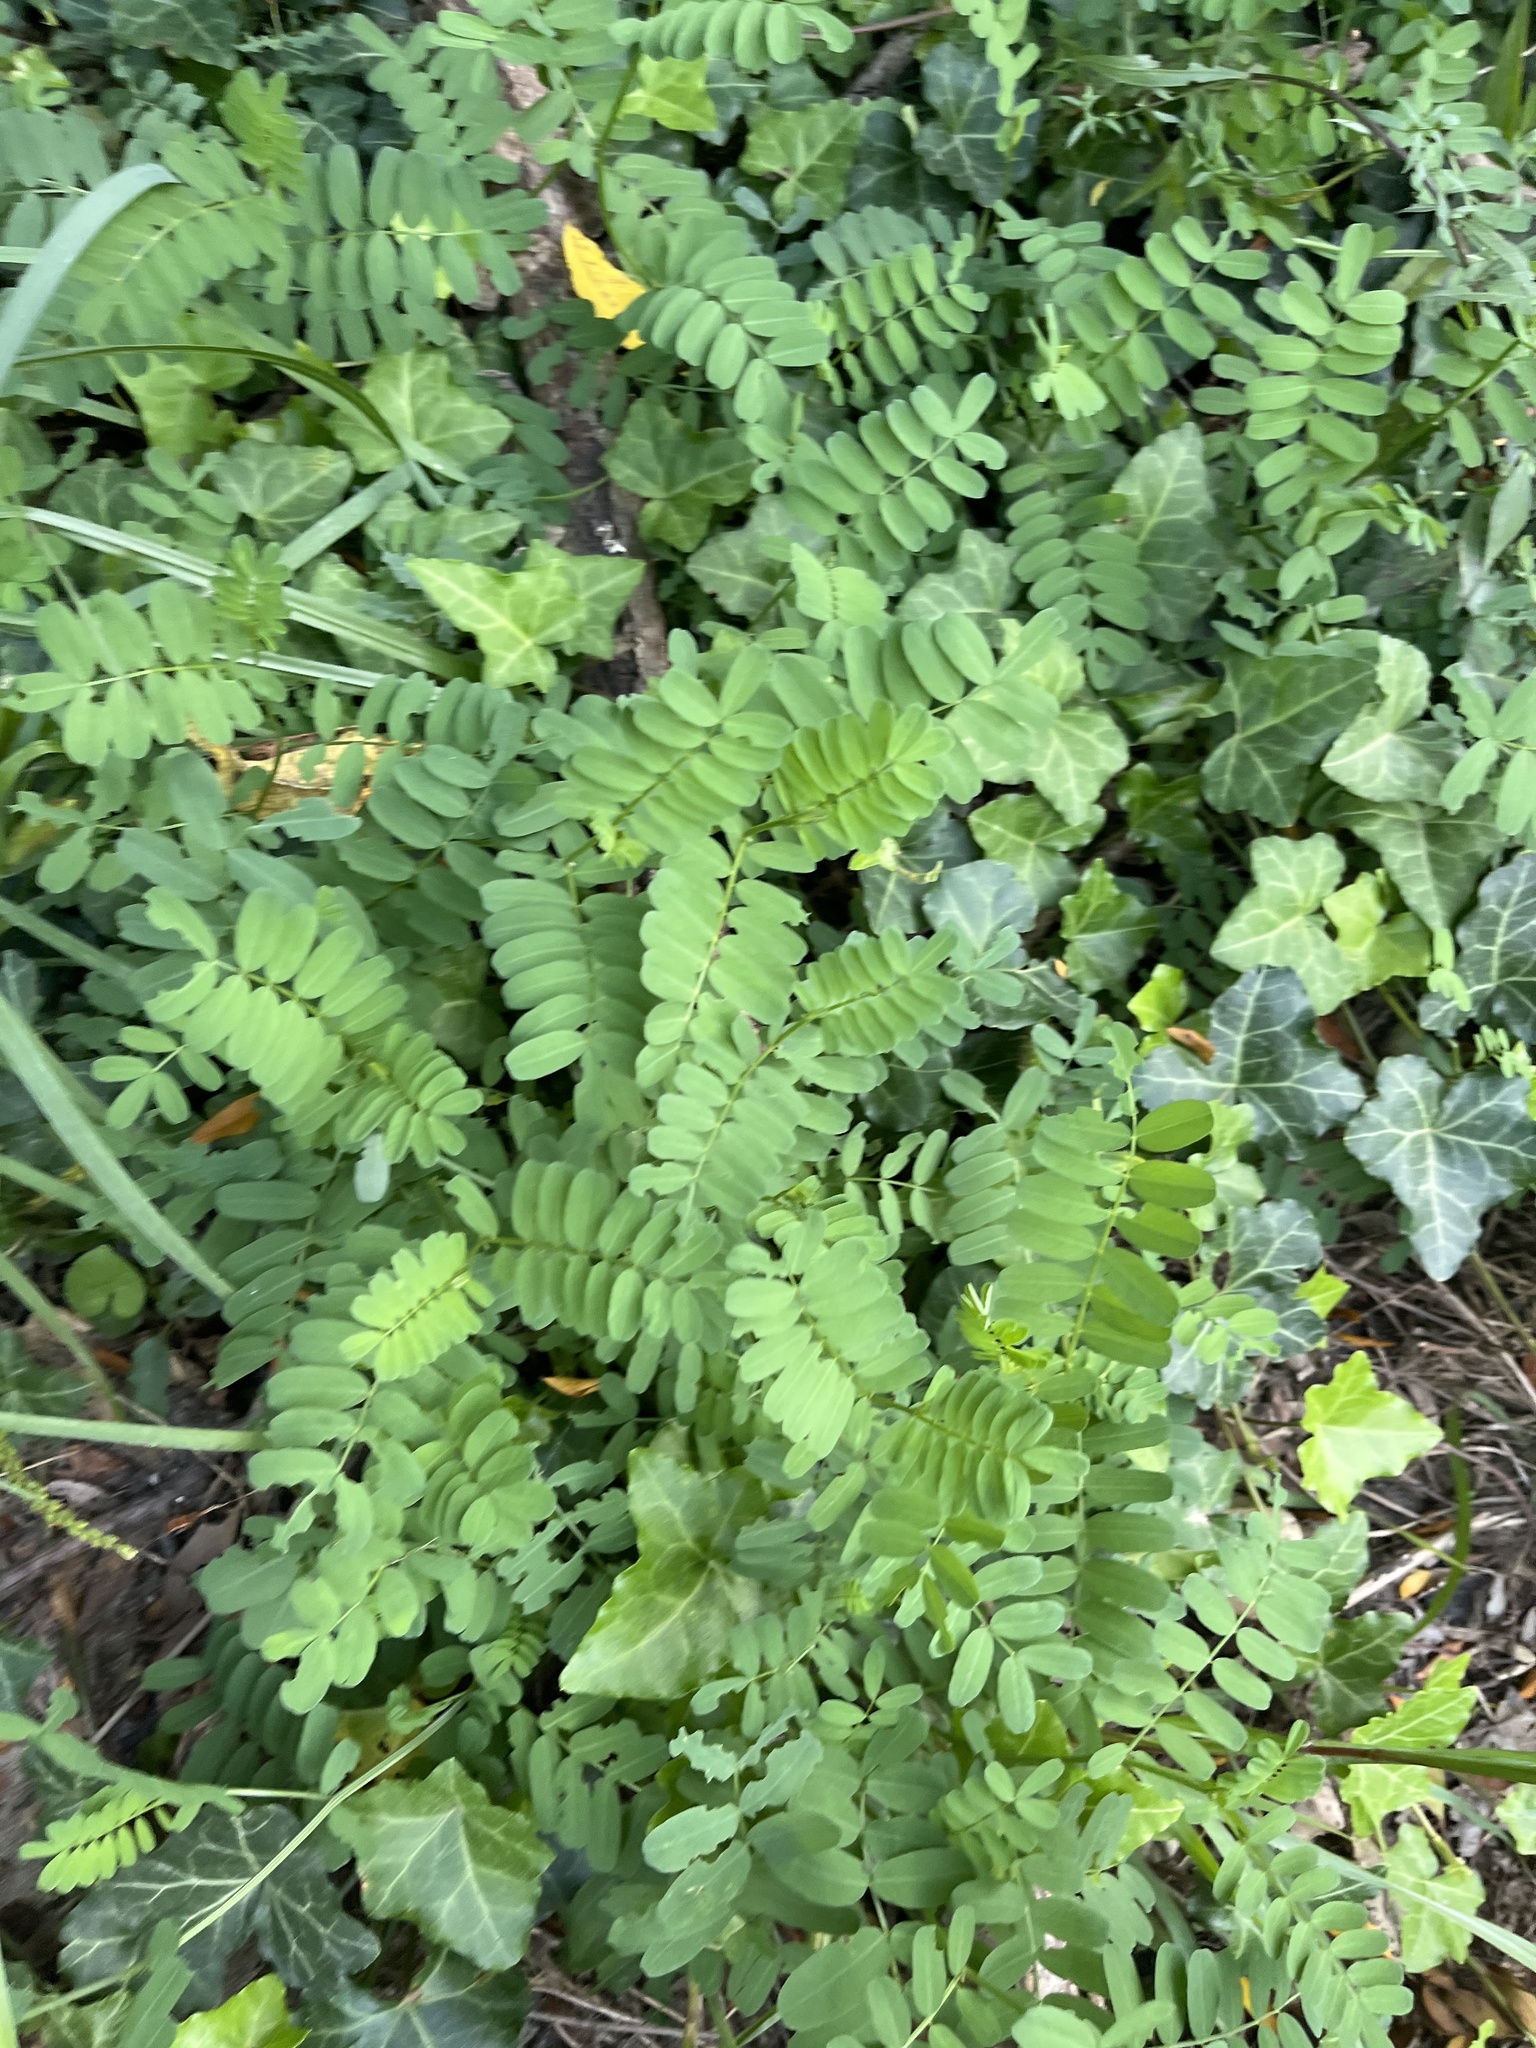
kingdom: Plantae
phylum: Tracheophyta
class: Magnoliopsida
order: Fabales
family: Fabaceae
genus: Coronilla
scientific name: Coronilla varia
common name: Crownvetch
